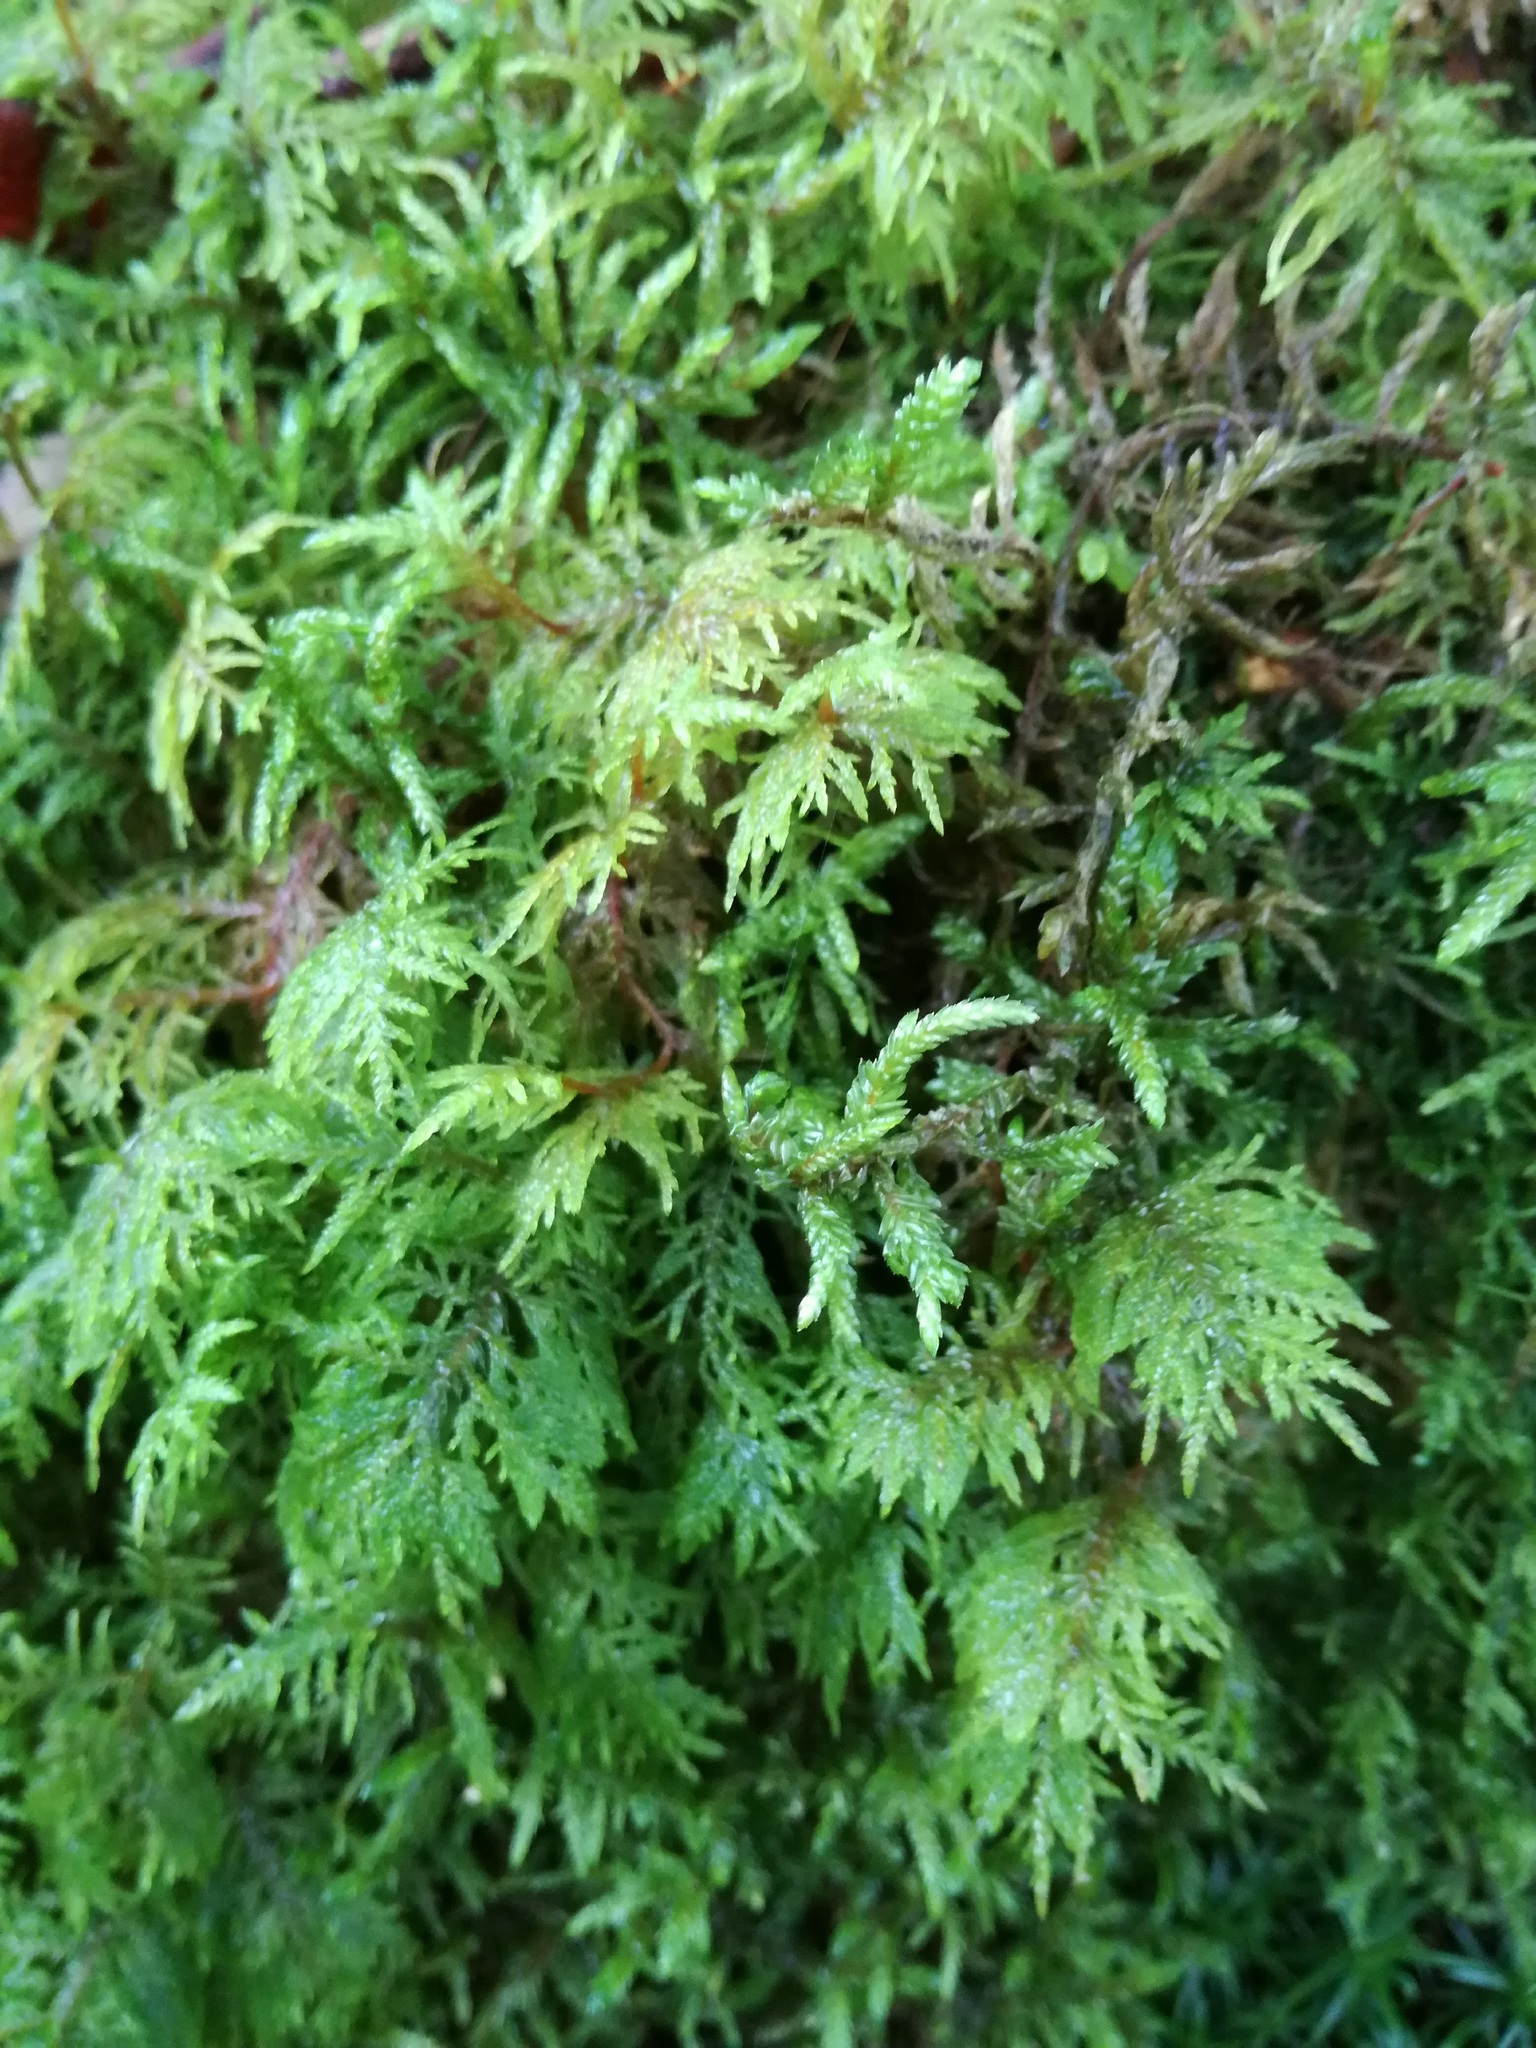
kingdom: Plantae
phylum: Bryophyta
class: Bryopsida
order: Hypnales
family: Thuidiaceae
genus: Thuidium
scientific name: Thuidium tamariscinum
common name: Common tamarisk-moss
